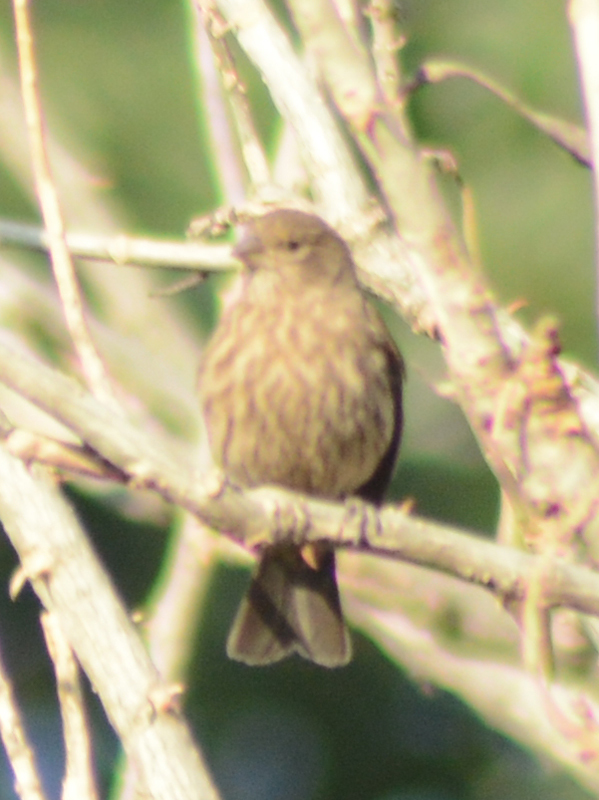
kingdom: Animalia
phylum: Chordata
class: Aves
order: Passeriformes
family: Fringillidae
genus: Haemorhous
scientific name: Haemorhous mexicanus
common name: House finch
